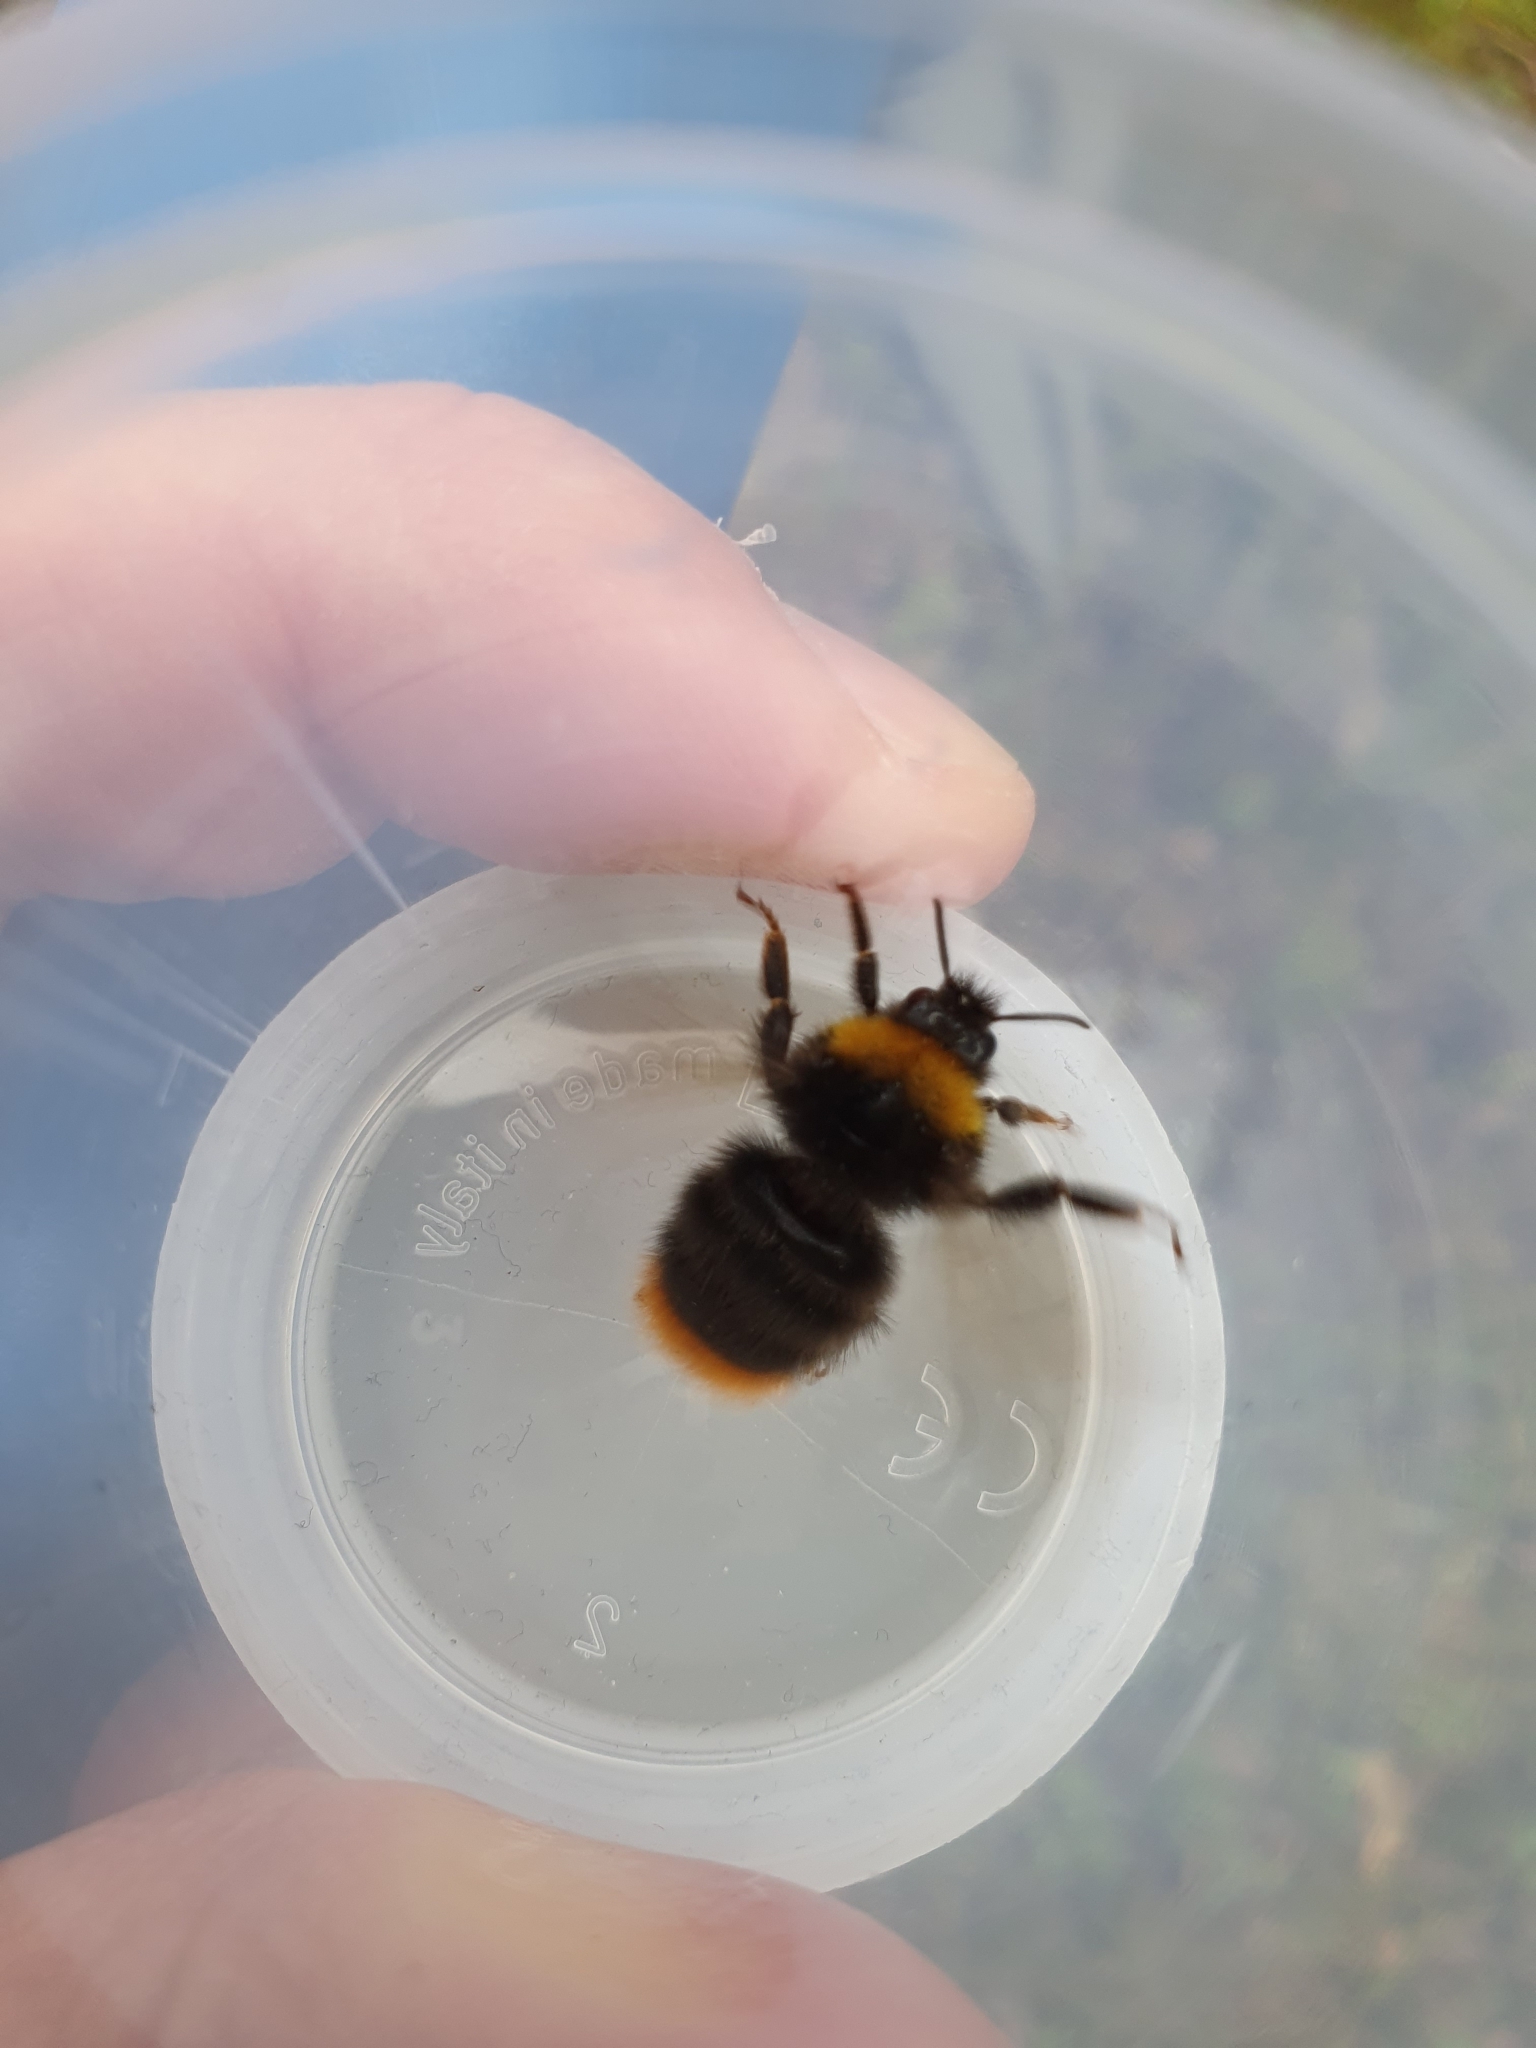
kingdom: Animalia
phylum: Arthropoda
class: Insecta
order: Hymenoptera
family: Apidae
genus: Bombus
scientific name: Bombus pratorum
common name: Early humble-bee
